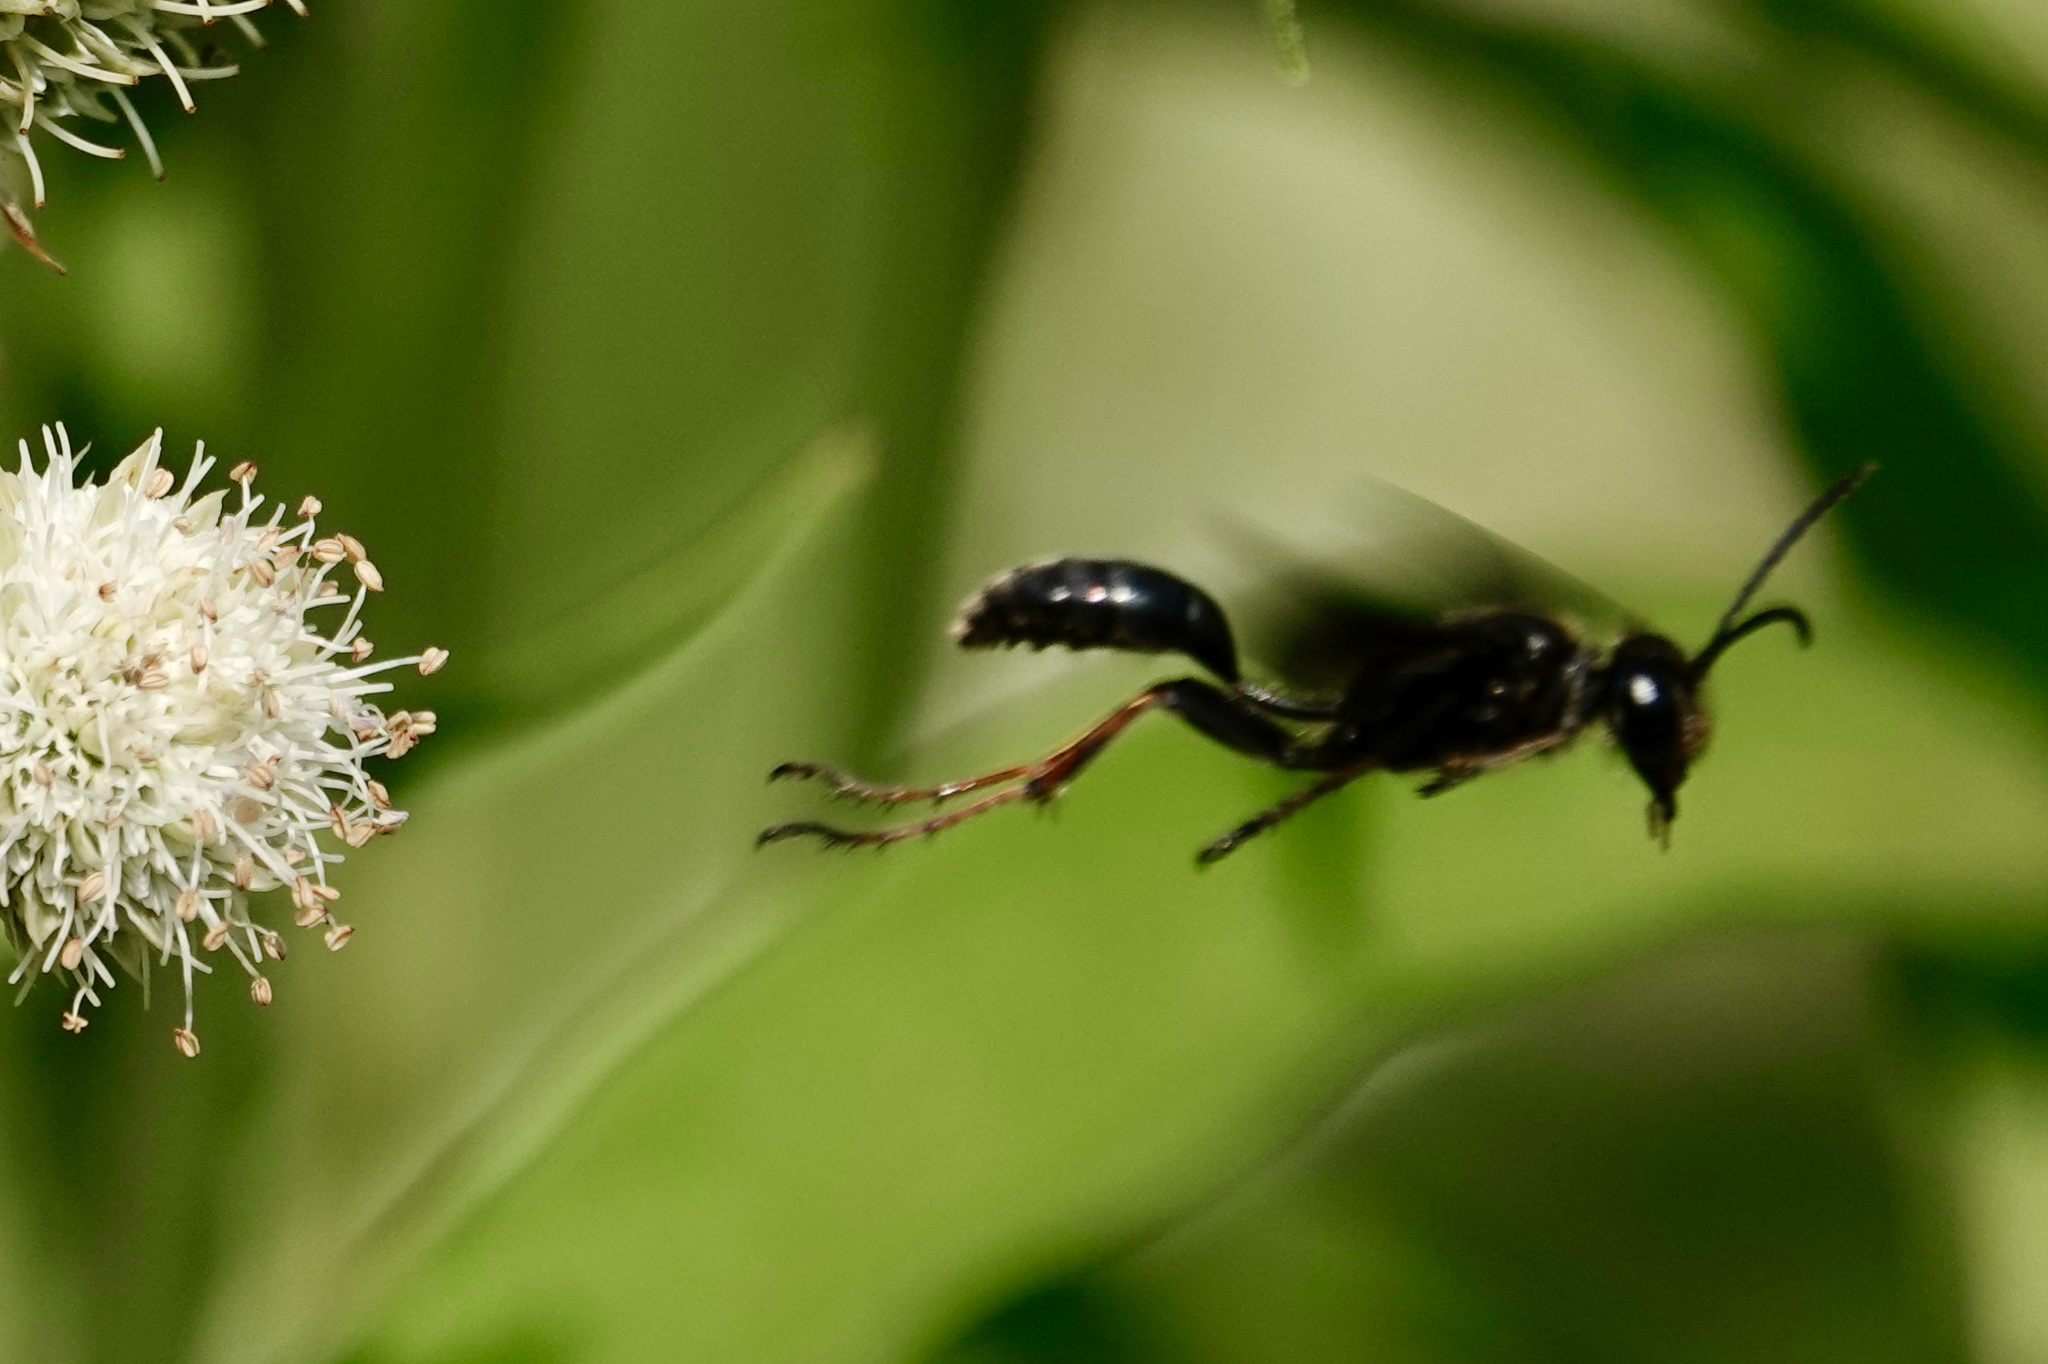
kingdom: Animalia
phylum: Arthropoda
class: Insecta
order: Hymenoptera
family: Sphecidae
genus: Isodontia
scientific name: Isodontia auripes
